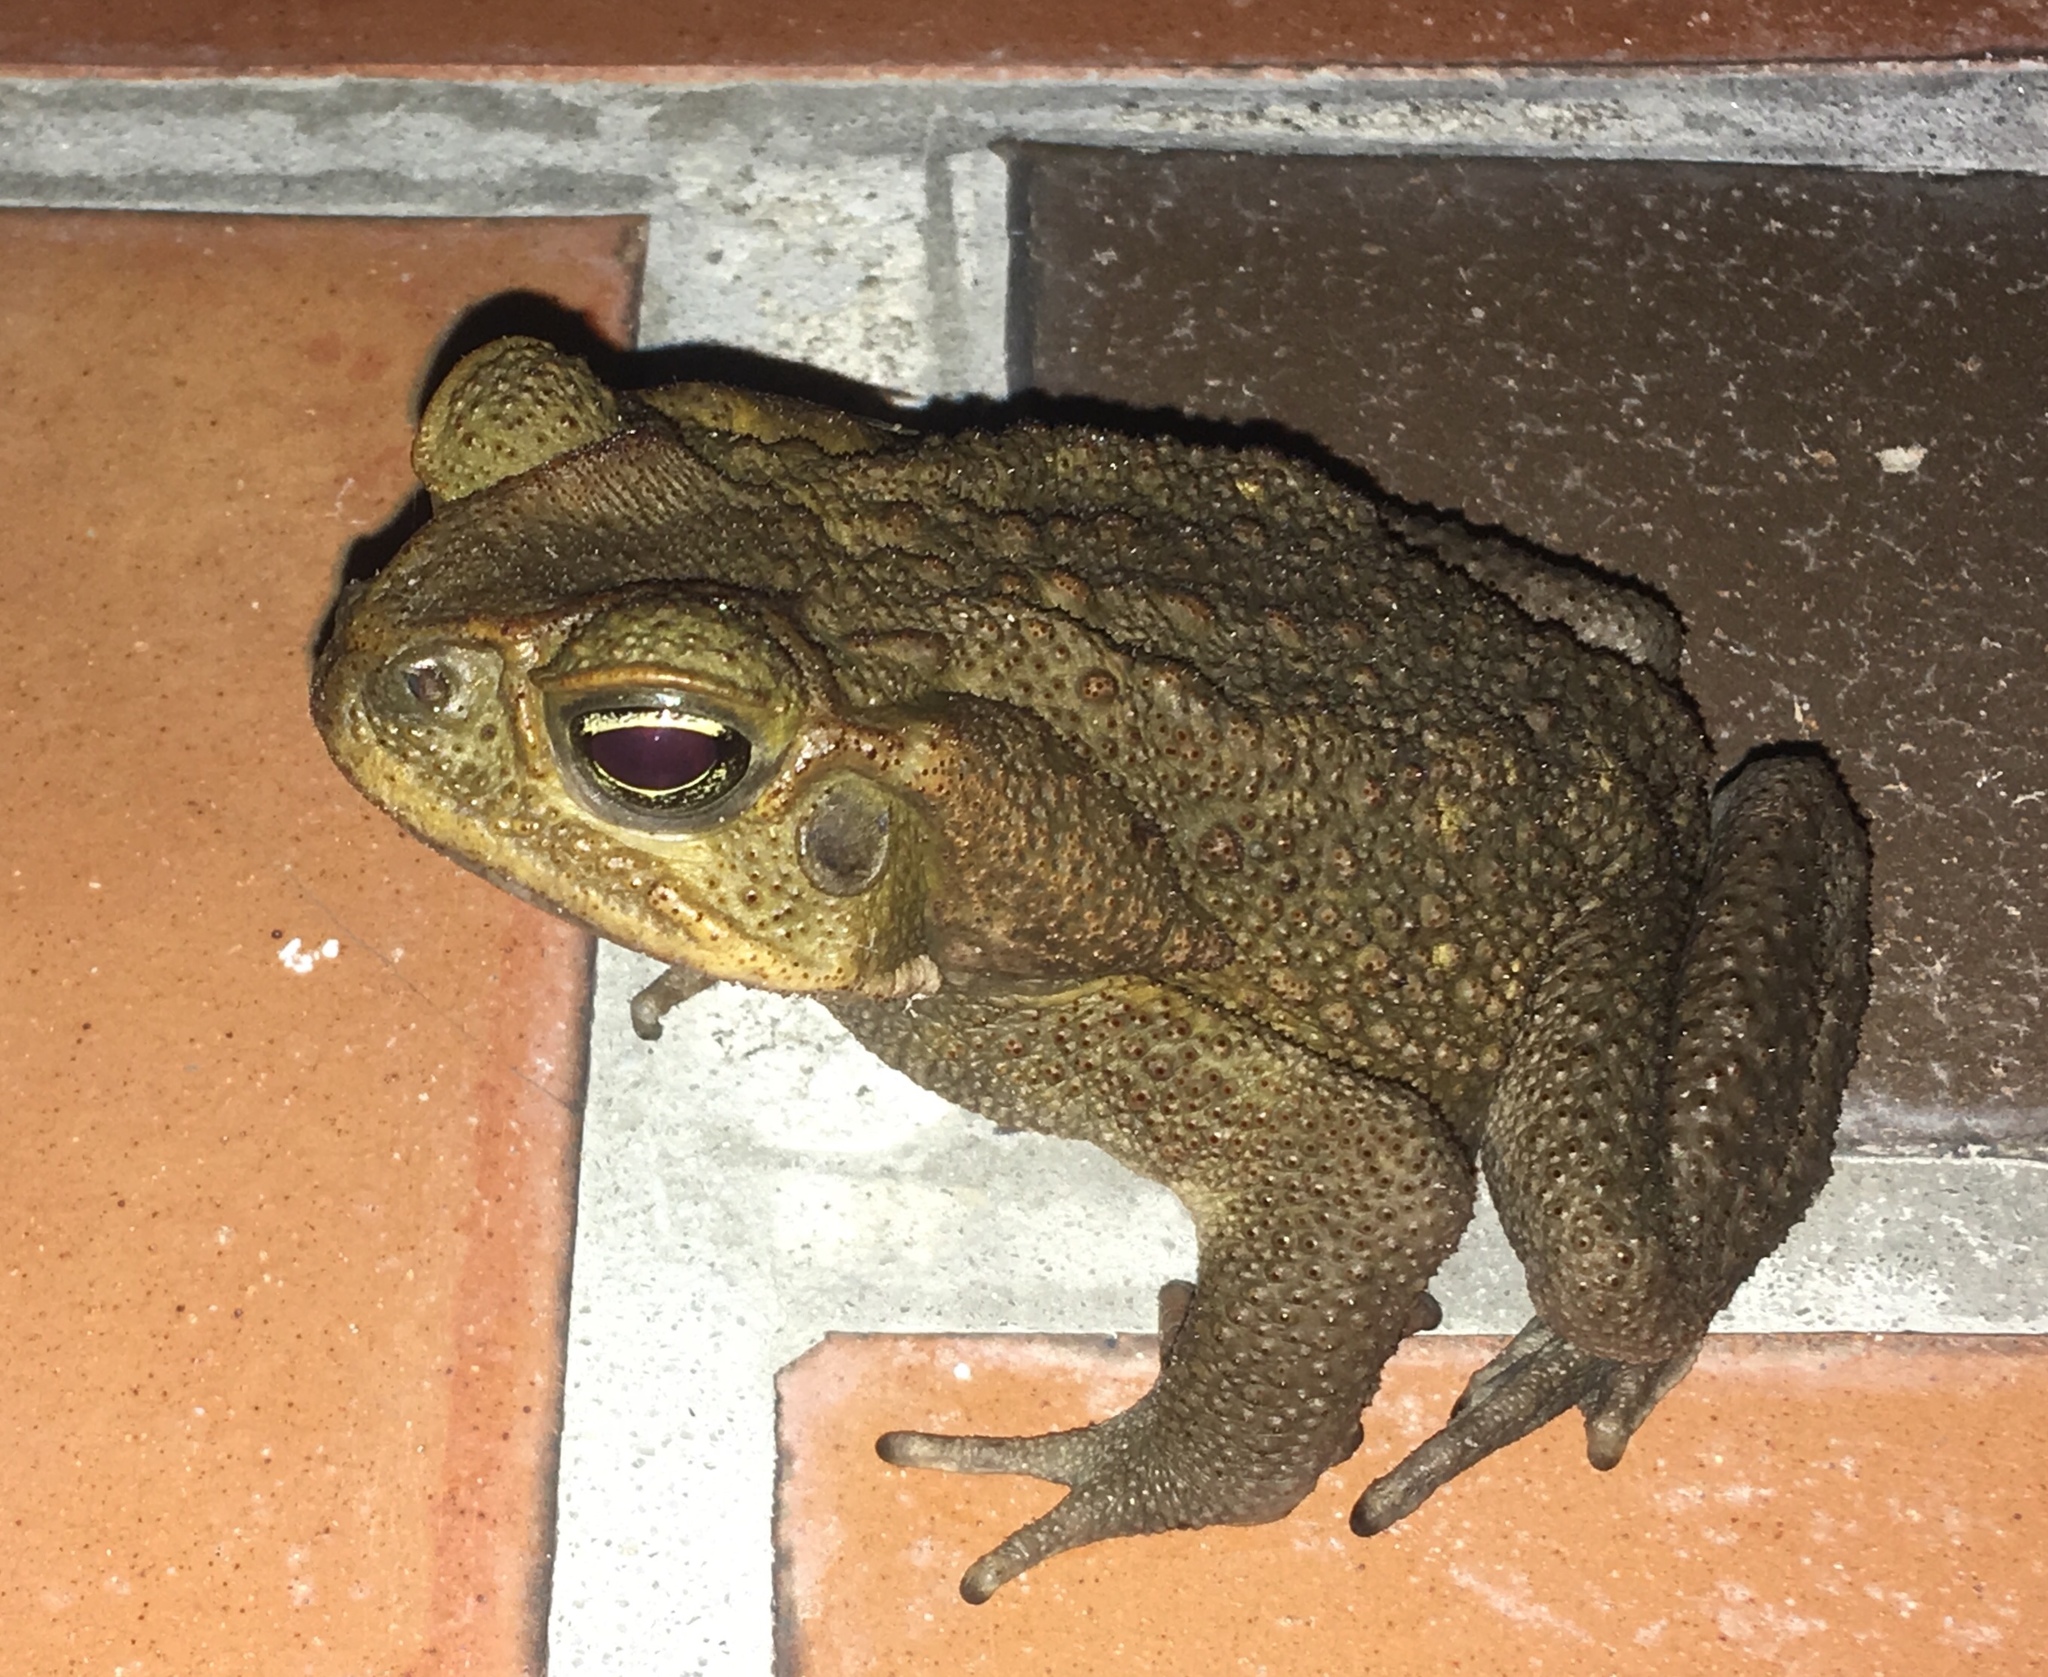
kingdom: Animalia
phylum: Chordata
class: Amphibia
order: Anura
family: Bufonidae
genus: Rhinella
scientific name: Rhinella marina
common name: Cane toad
